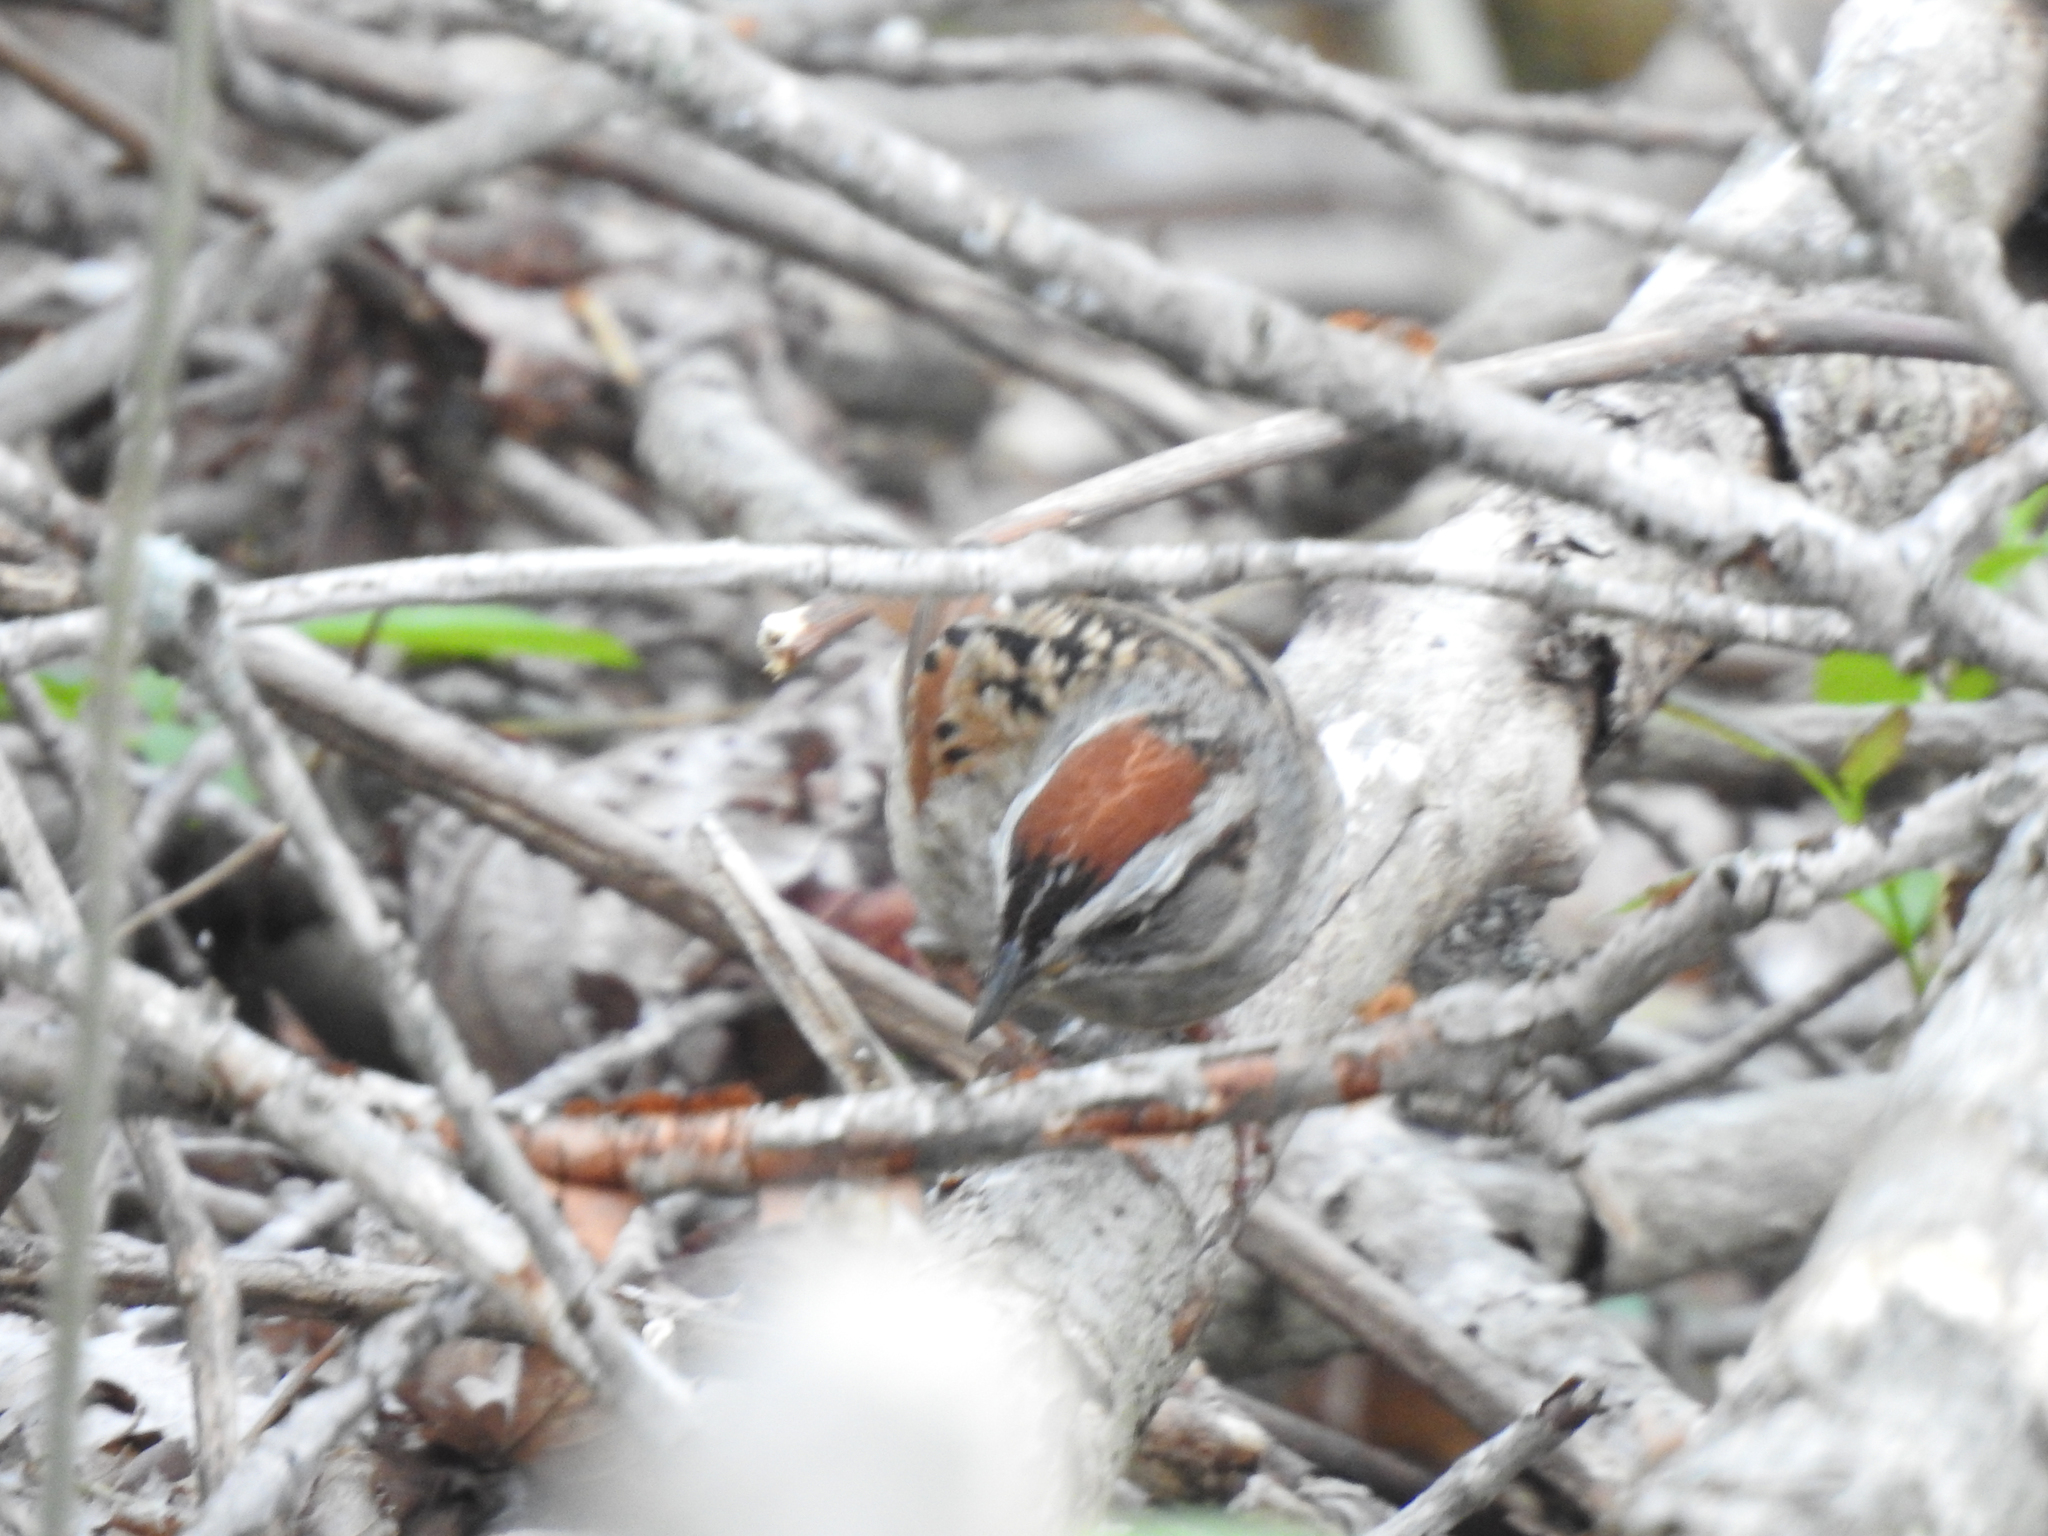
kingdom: Animalia
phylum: Chordata
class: Aves
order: Passeriformes
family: Passerellidae
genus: Melospiza
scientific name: Melospiza georgiana
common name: Swamp sparrow
